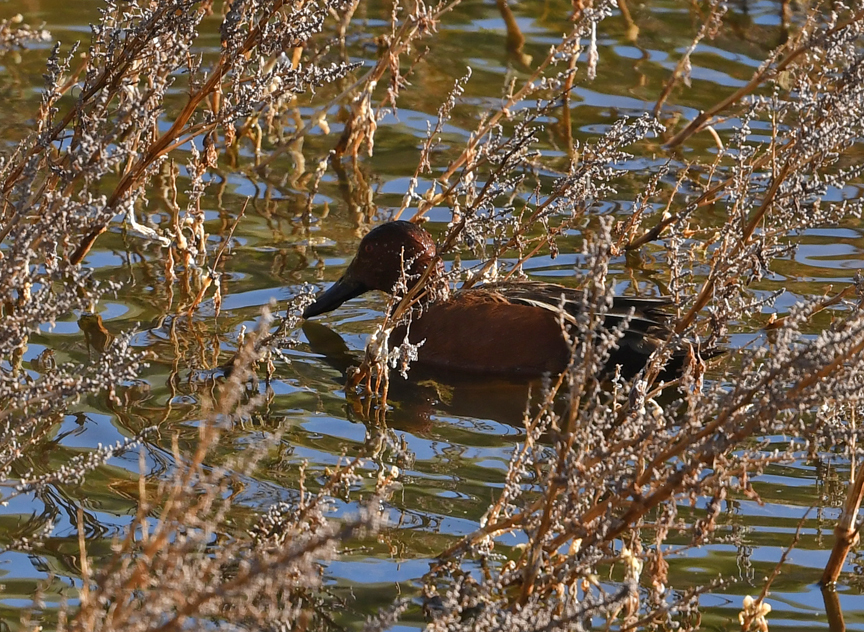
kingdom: Animalia
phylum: Chordata
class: Aves
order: Anseriformes
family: Anatidae
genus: Spatula
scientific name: Spatula cyanoptera
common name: Cinnamon teal
